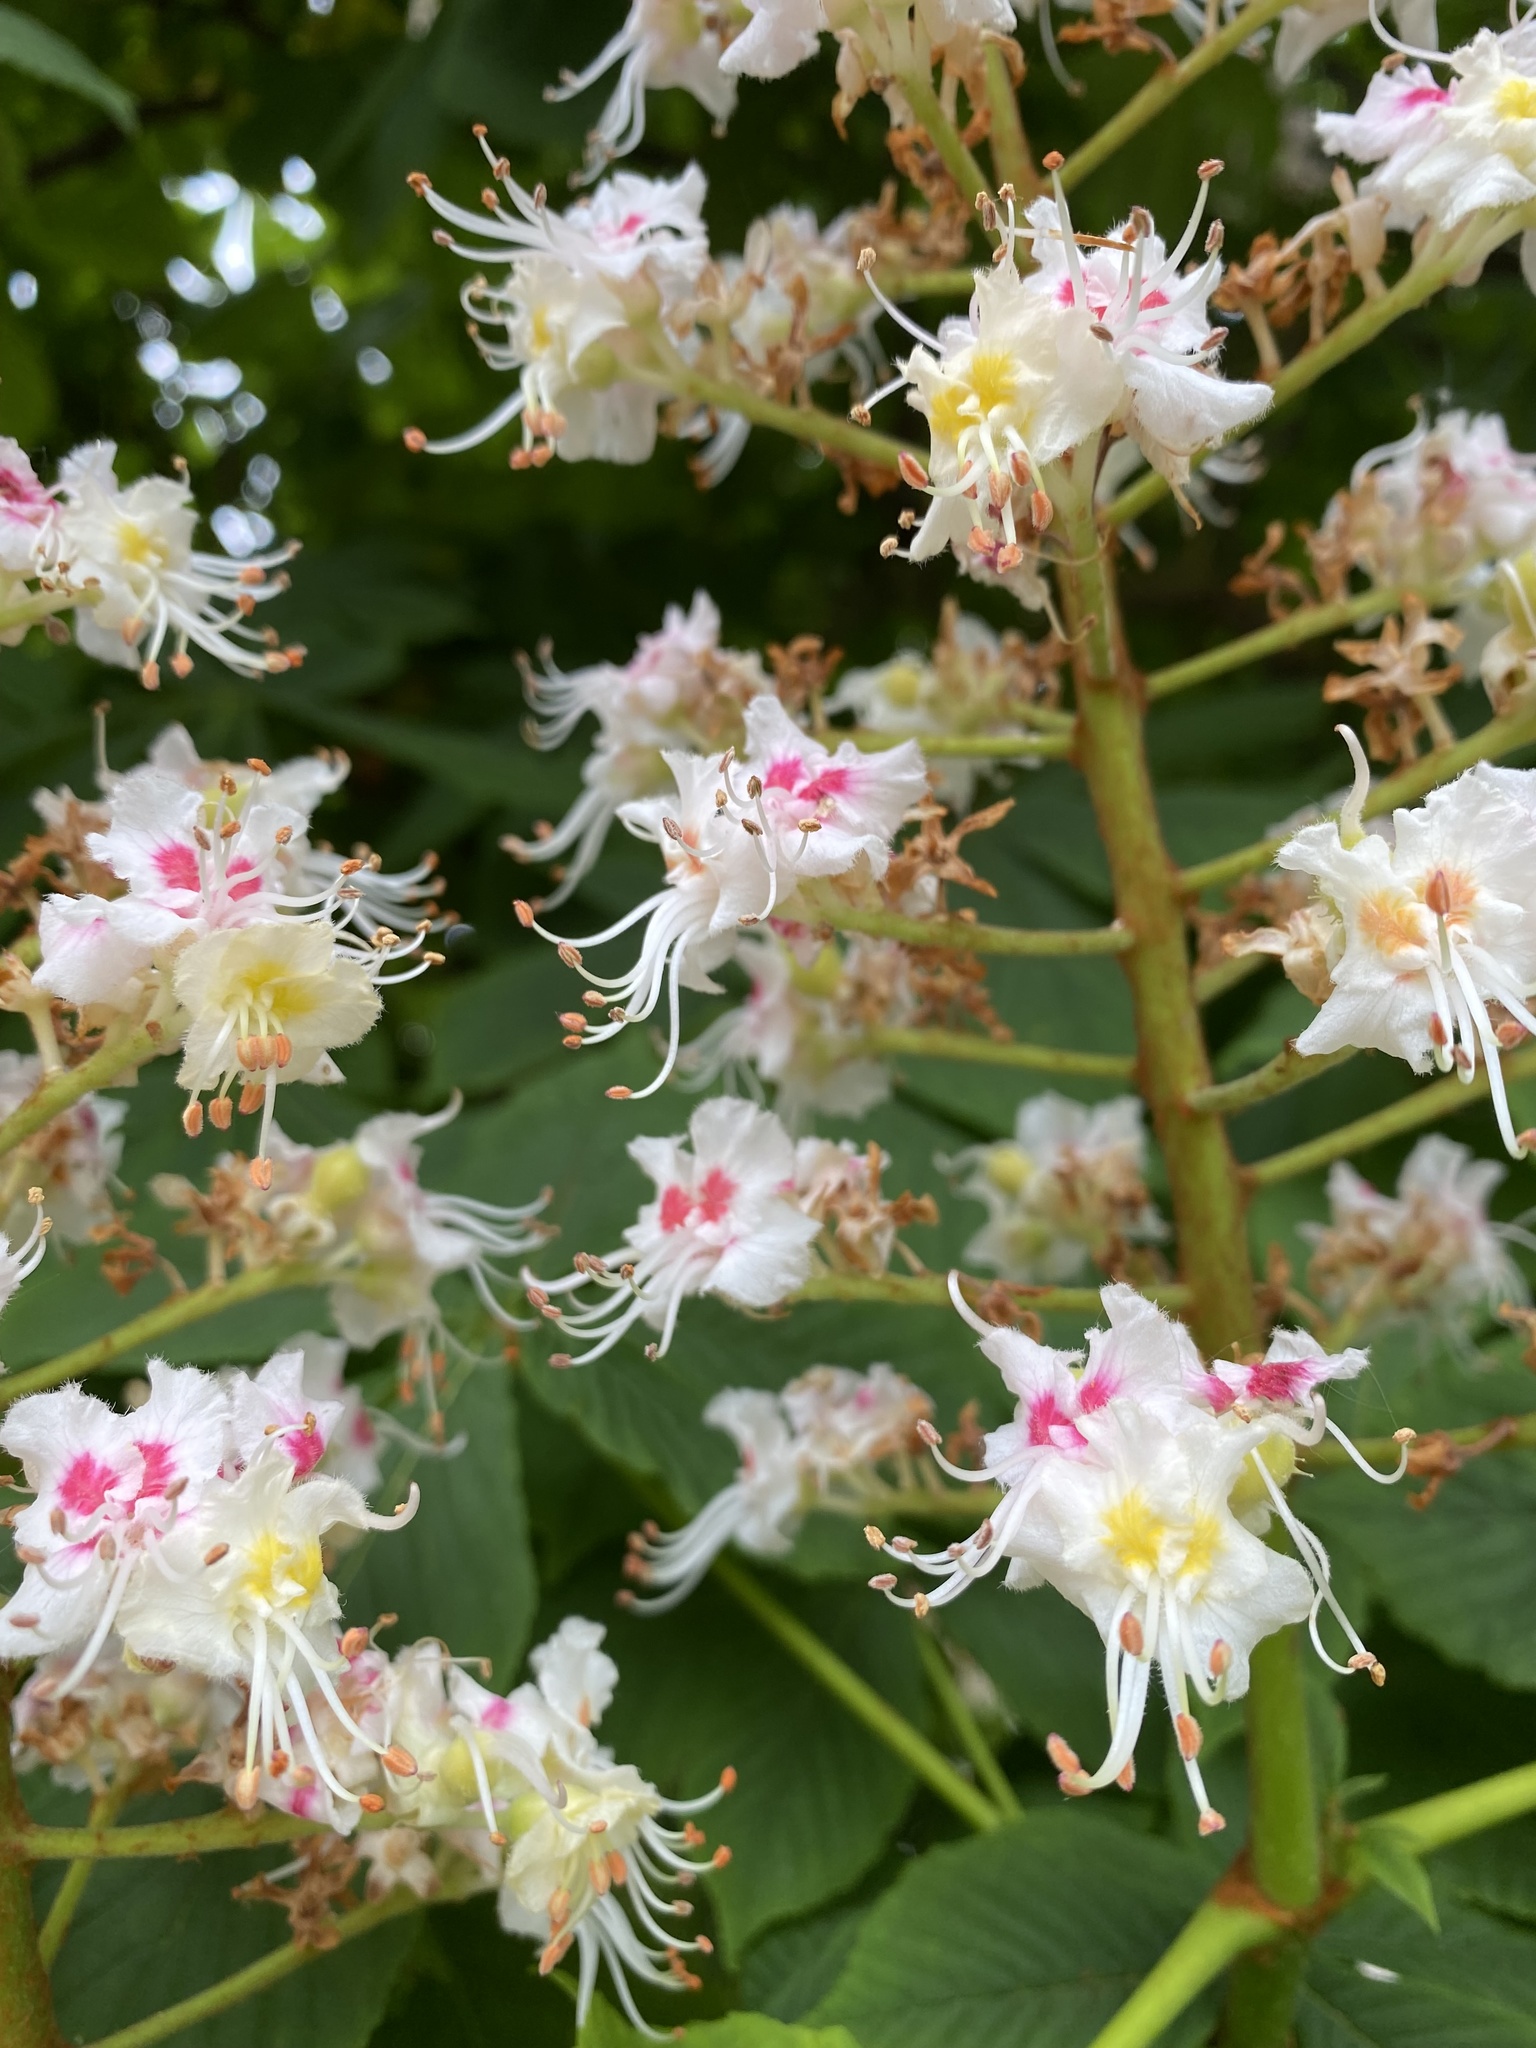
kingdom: Plantae
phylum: Tracheophyta
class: Magnoliopsida
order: Sapindales
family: Sapindaceae
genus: Aesculus
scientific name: Aesculus hippocastanum
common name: Horse-chestnut
